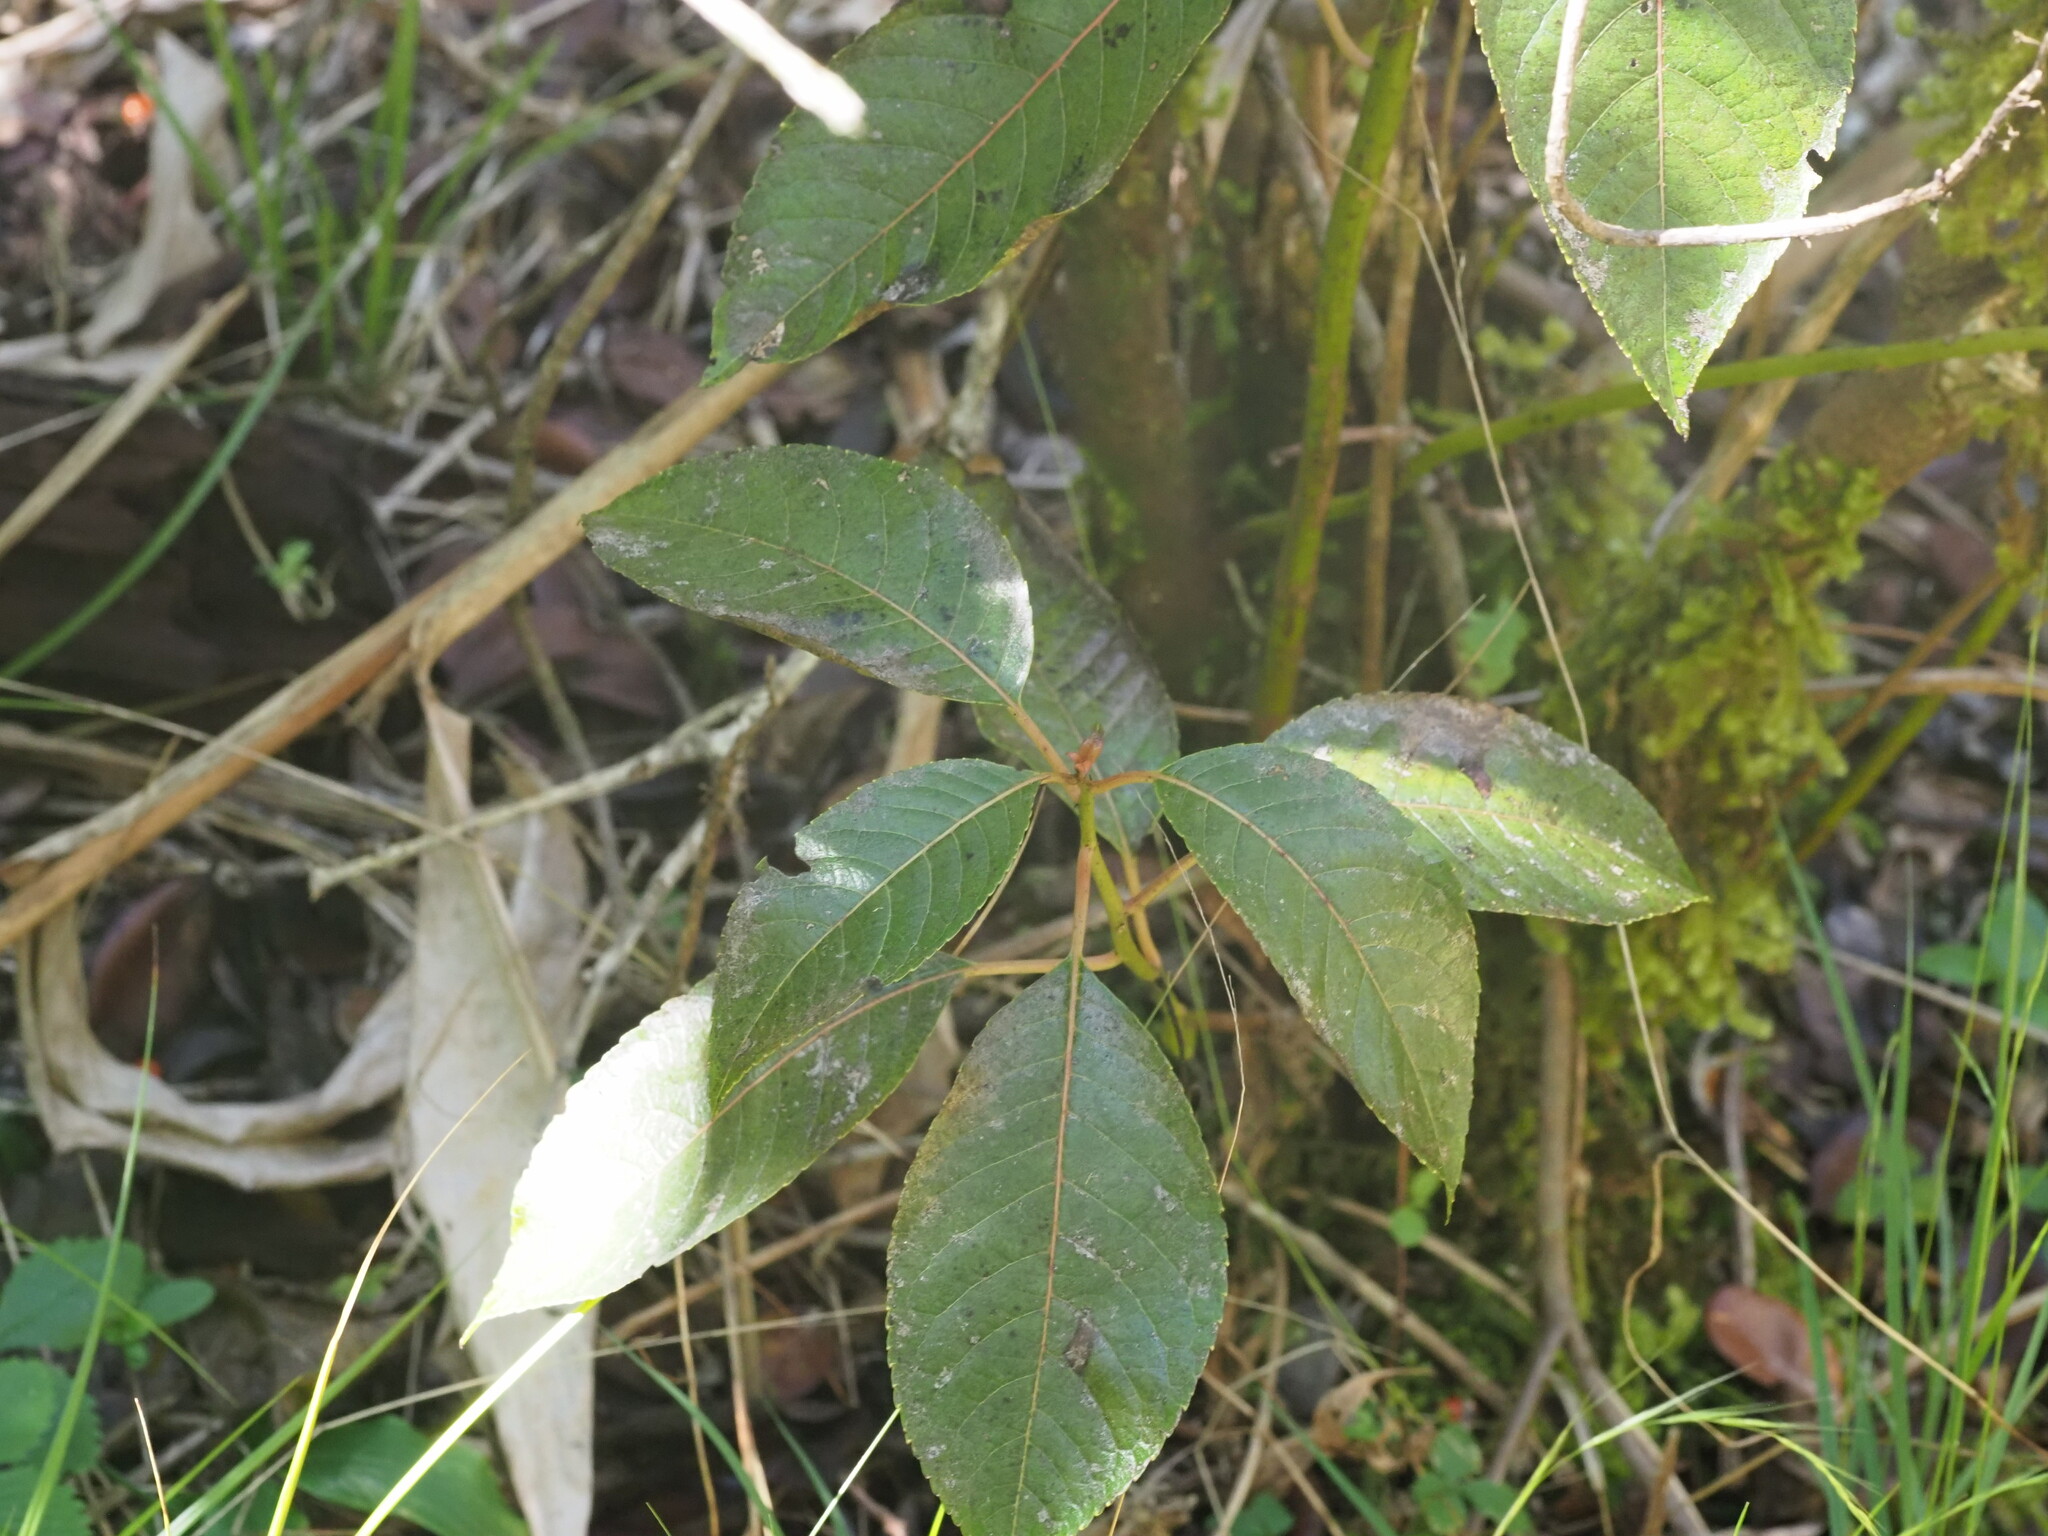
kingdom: Plantae
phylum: Tracheophyta
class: Magnoliopsida
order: Huerteales
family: Dipentodontaceae
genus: Perrottetia
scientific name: Perrottetia sandwicensis
